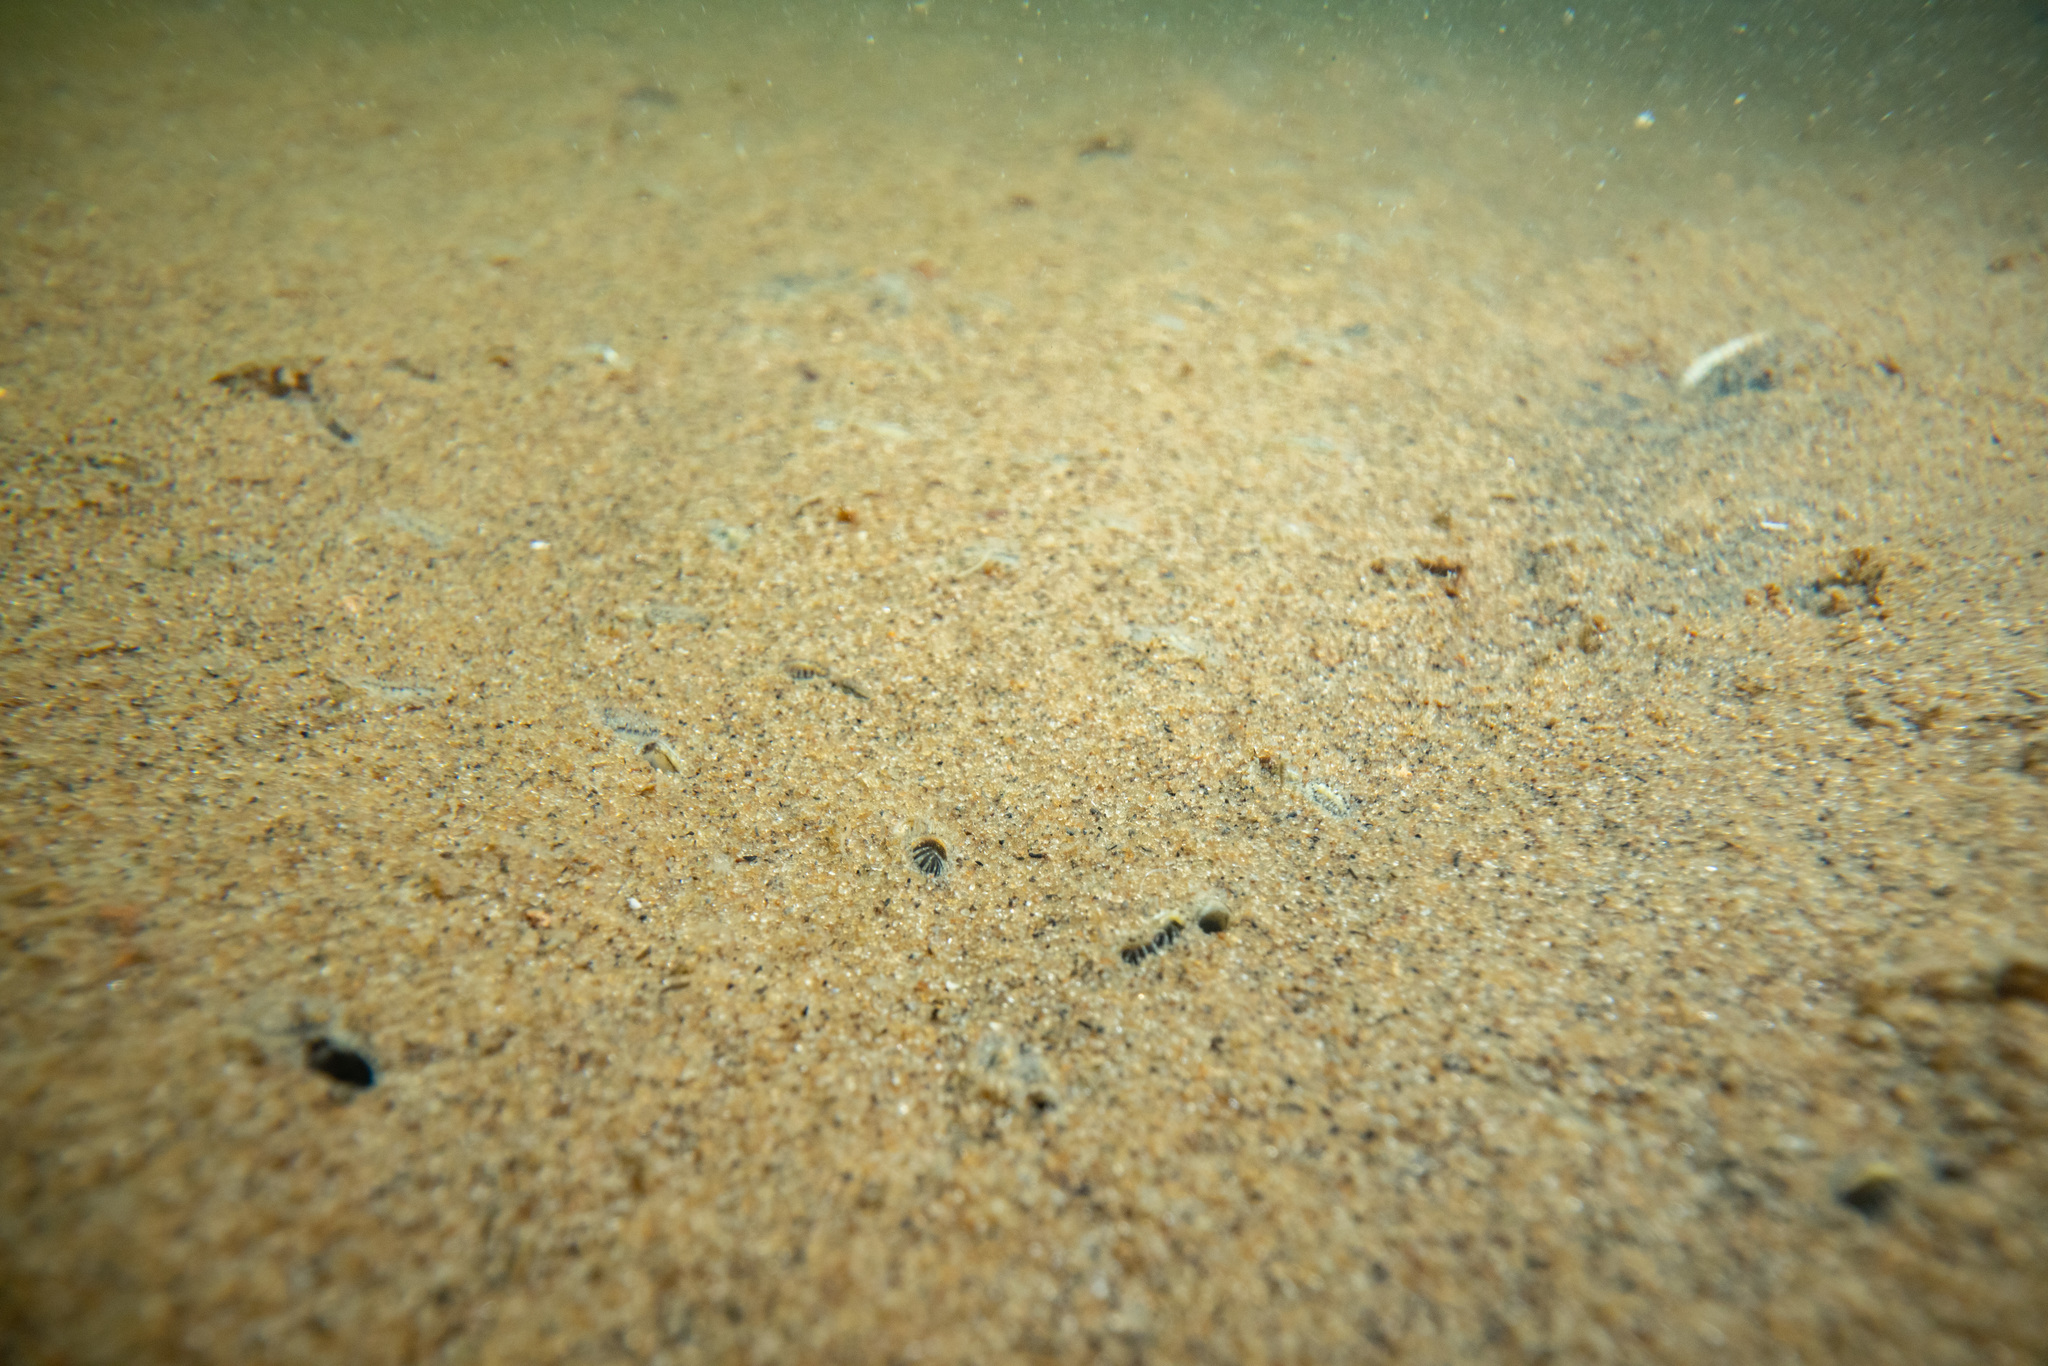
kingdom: Animalia
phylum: Mollusca
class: Bivalvia
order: Venerida
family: Veneridae
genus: Austrovenus
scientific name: Austrovenus stutchburyi
